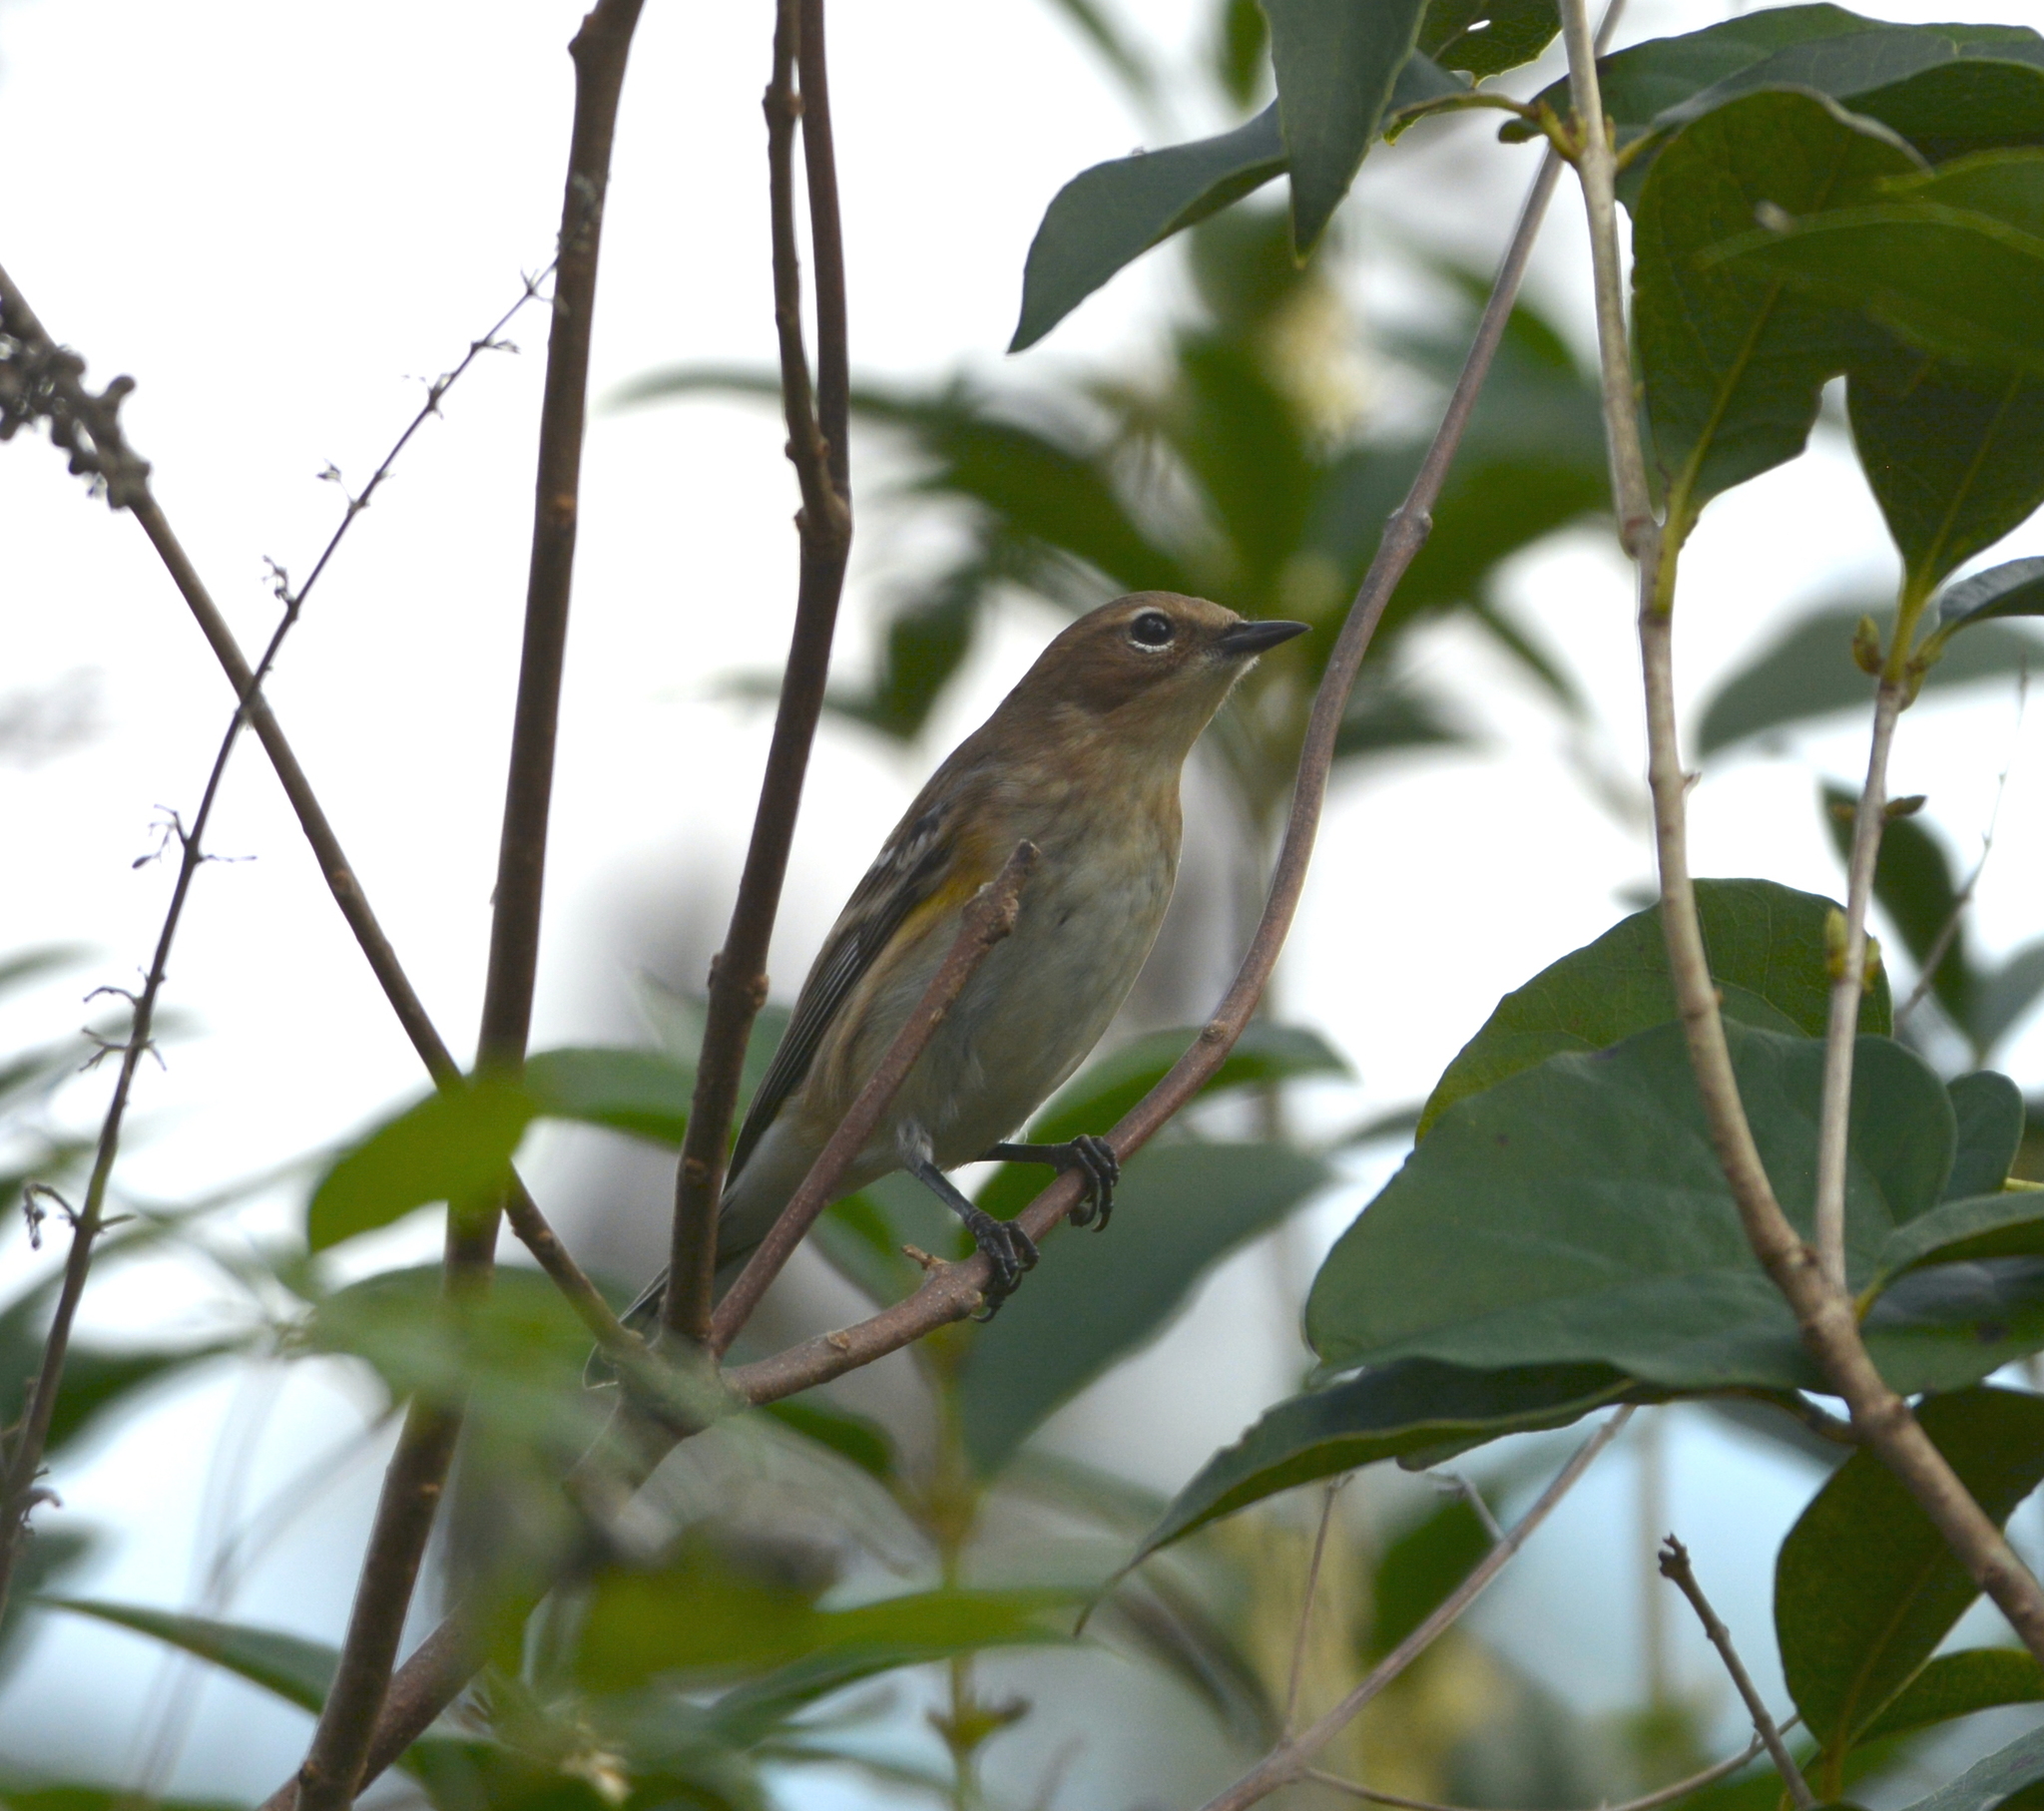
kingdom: Animalia
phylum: Chordata
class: Aves
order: Passeriformes
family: Parulidae
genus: Setophaga
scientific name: Setophaga coronata
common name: Myrtle warbler
